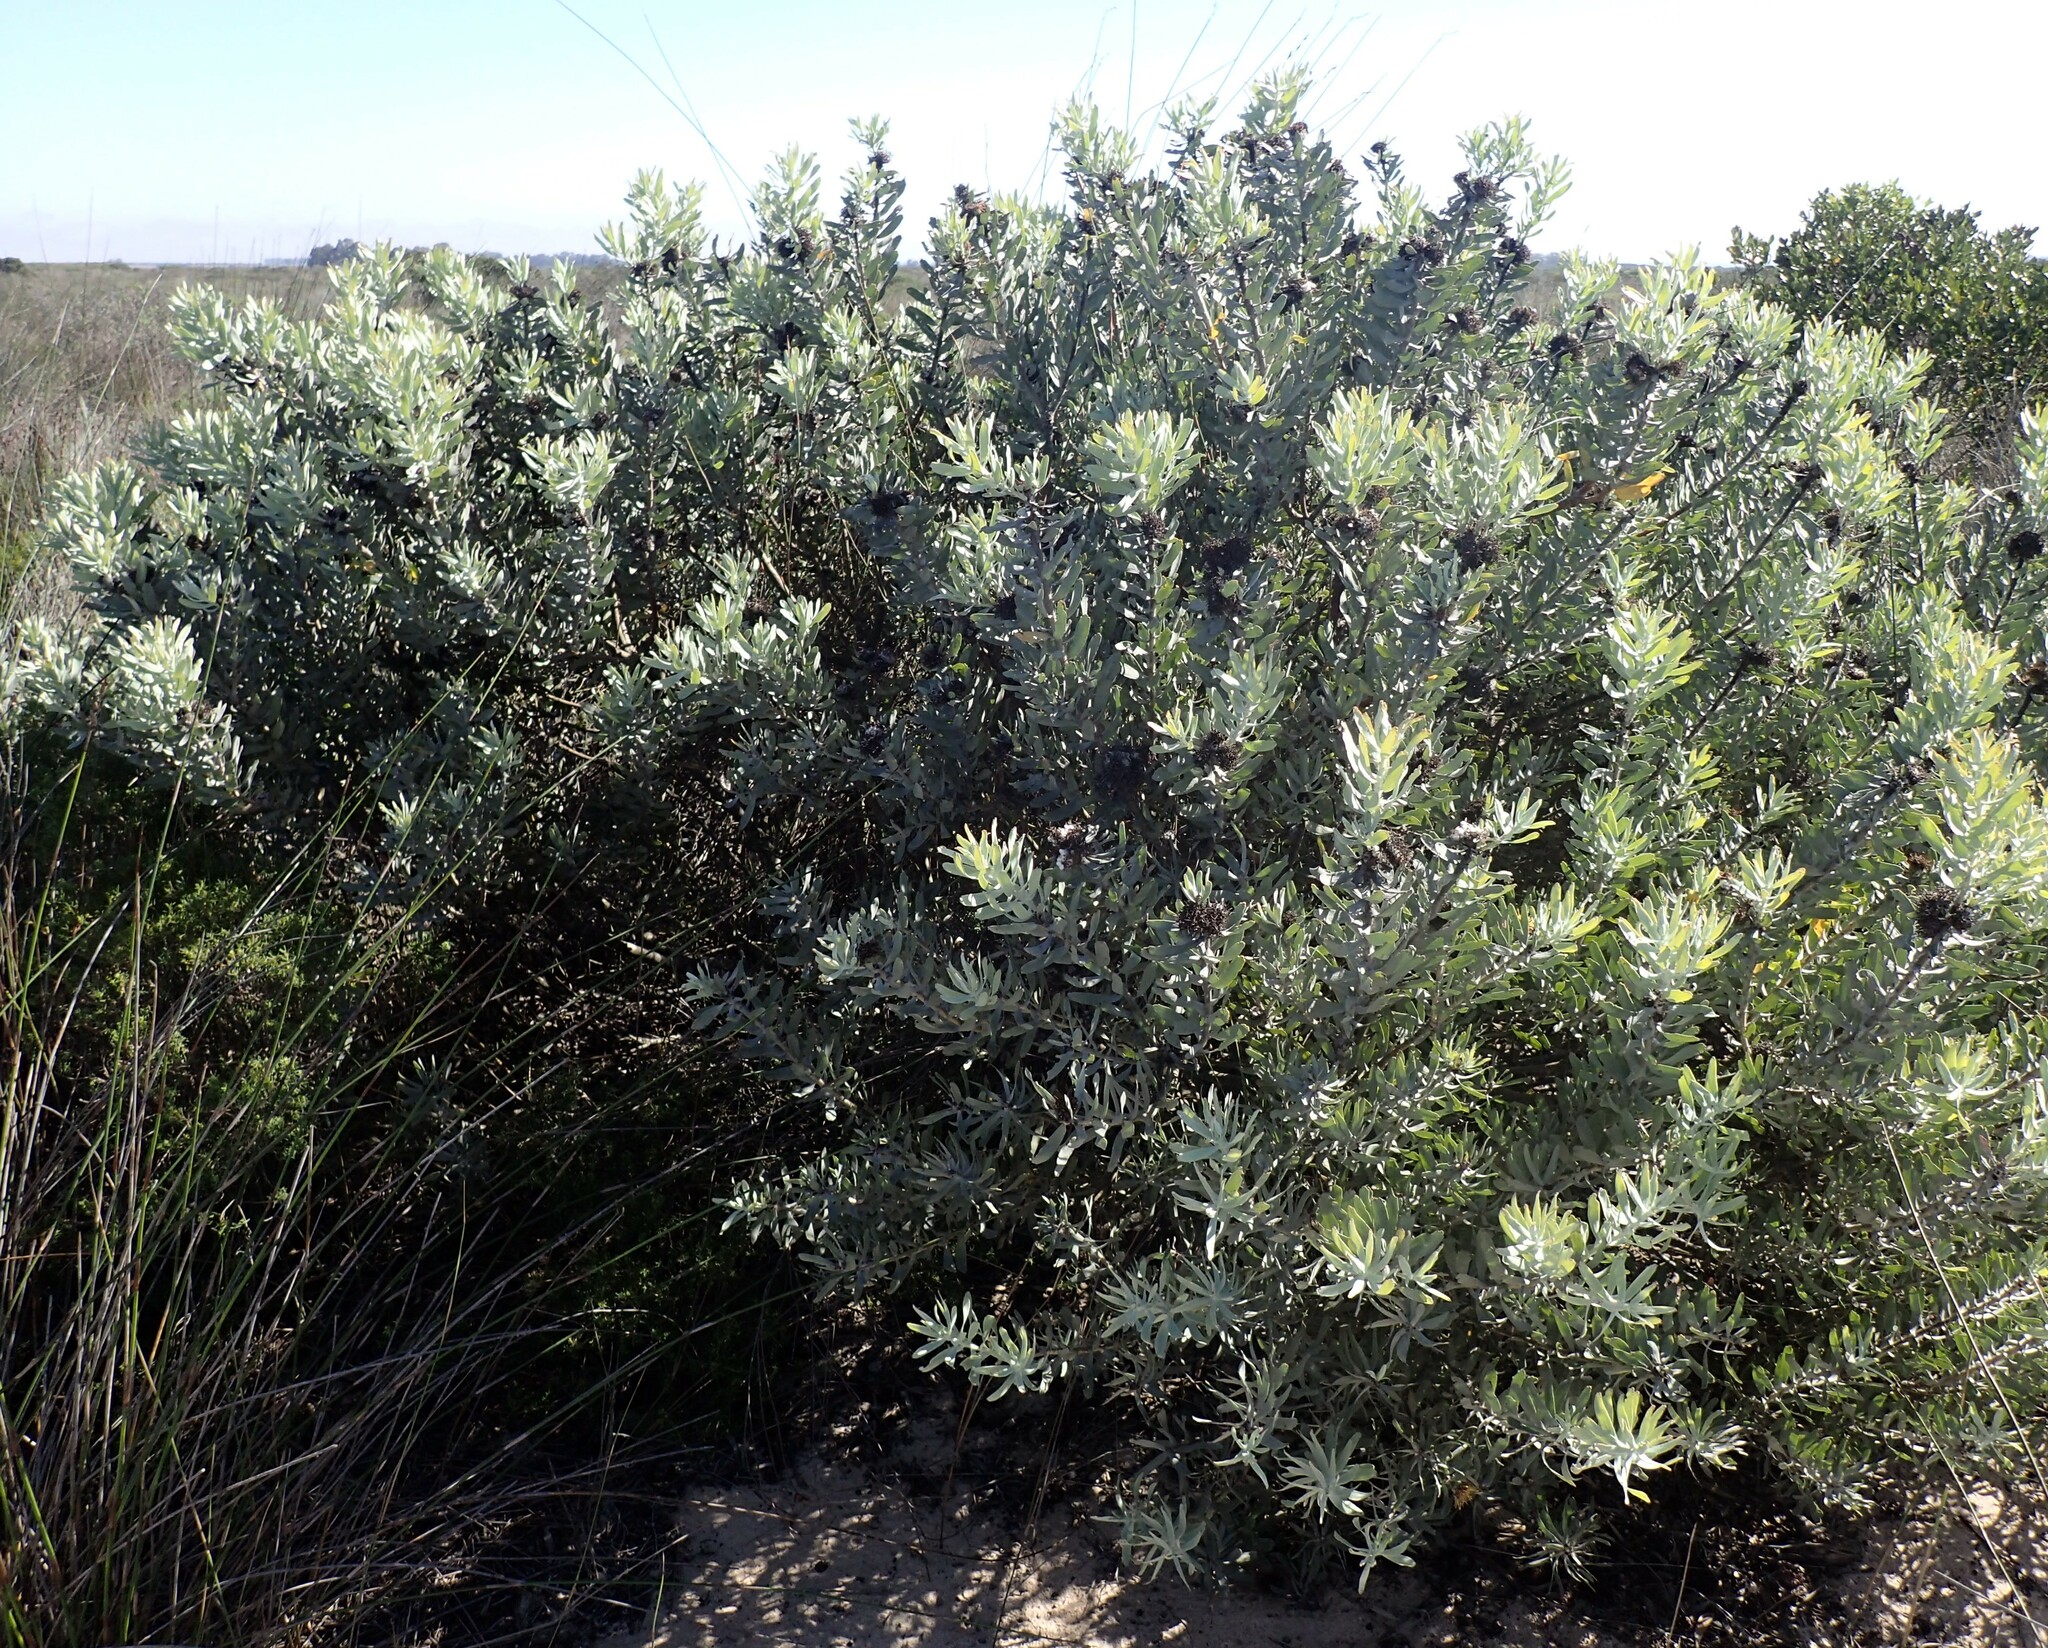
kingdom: Plantae
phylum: Tracheophyta
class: Magnoliopsida
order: Proteales
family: Proteaceae
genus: Leucospermum
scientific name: Leucospermum rodolentum
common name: Pincushion
